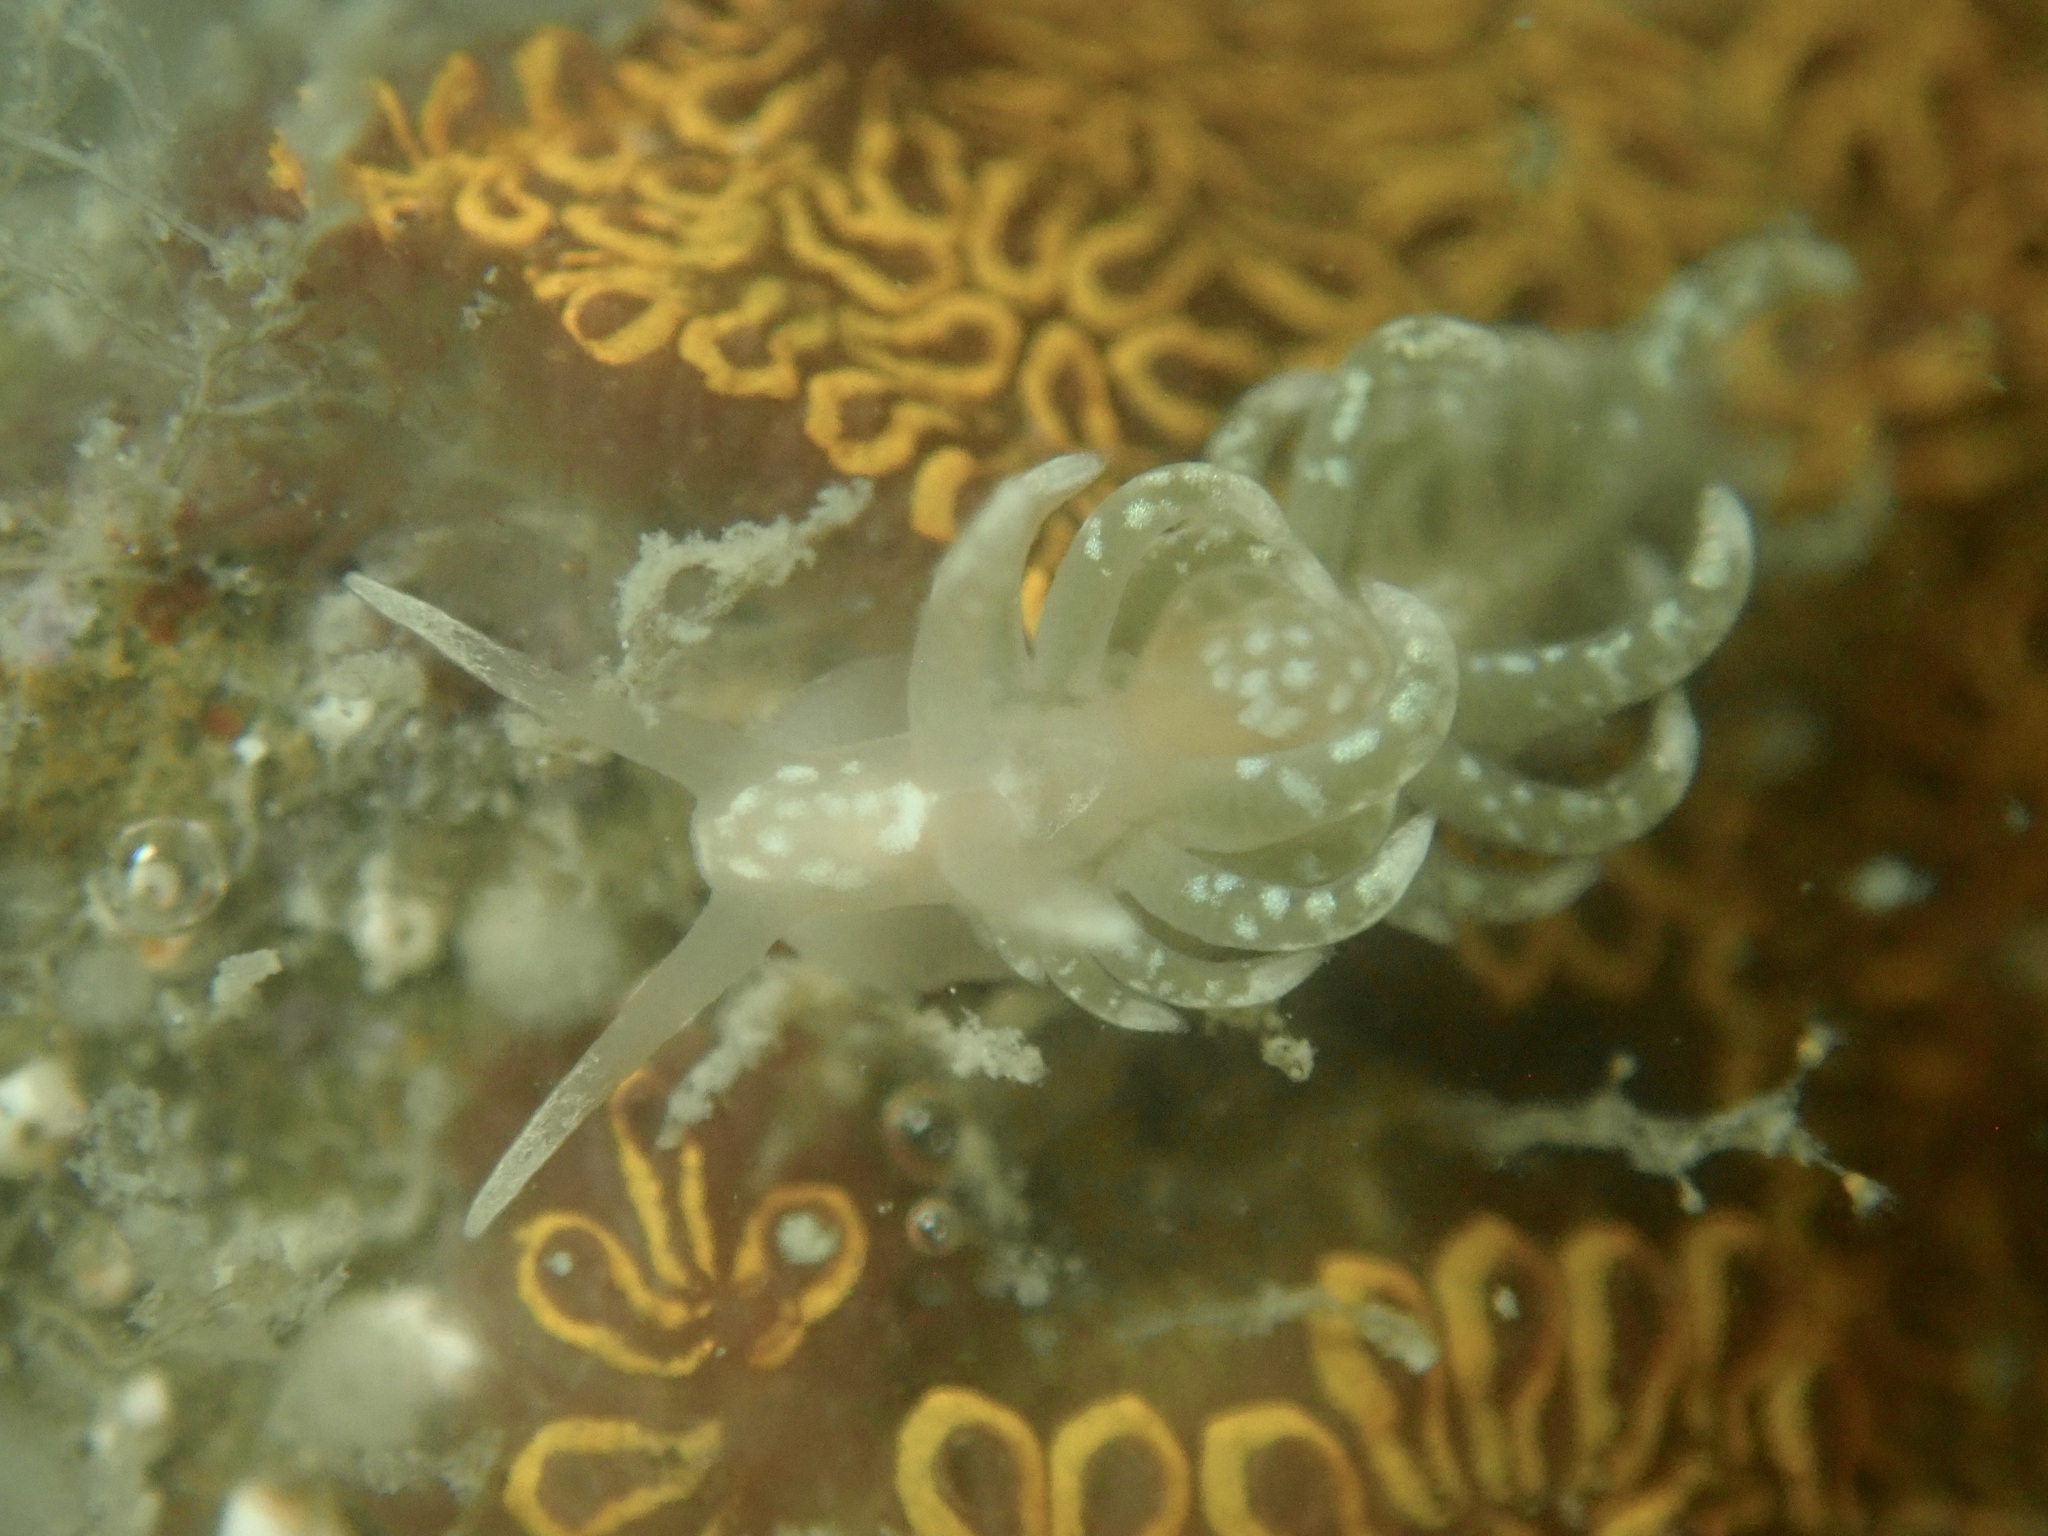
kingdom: Animalia
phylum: Mollusca
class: Gastropoda
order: Nudibranchia
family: Aeolidiidae
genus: Spurilla
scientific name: Spurilla braziliana
